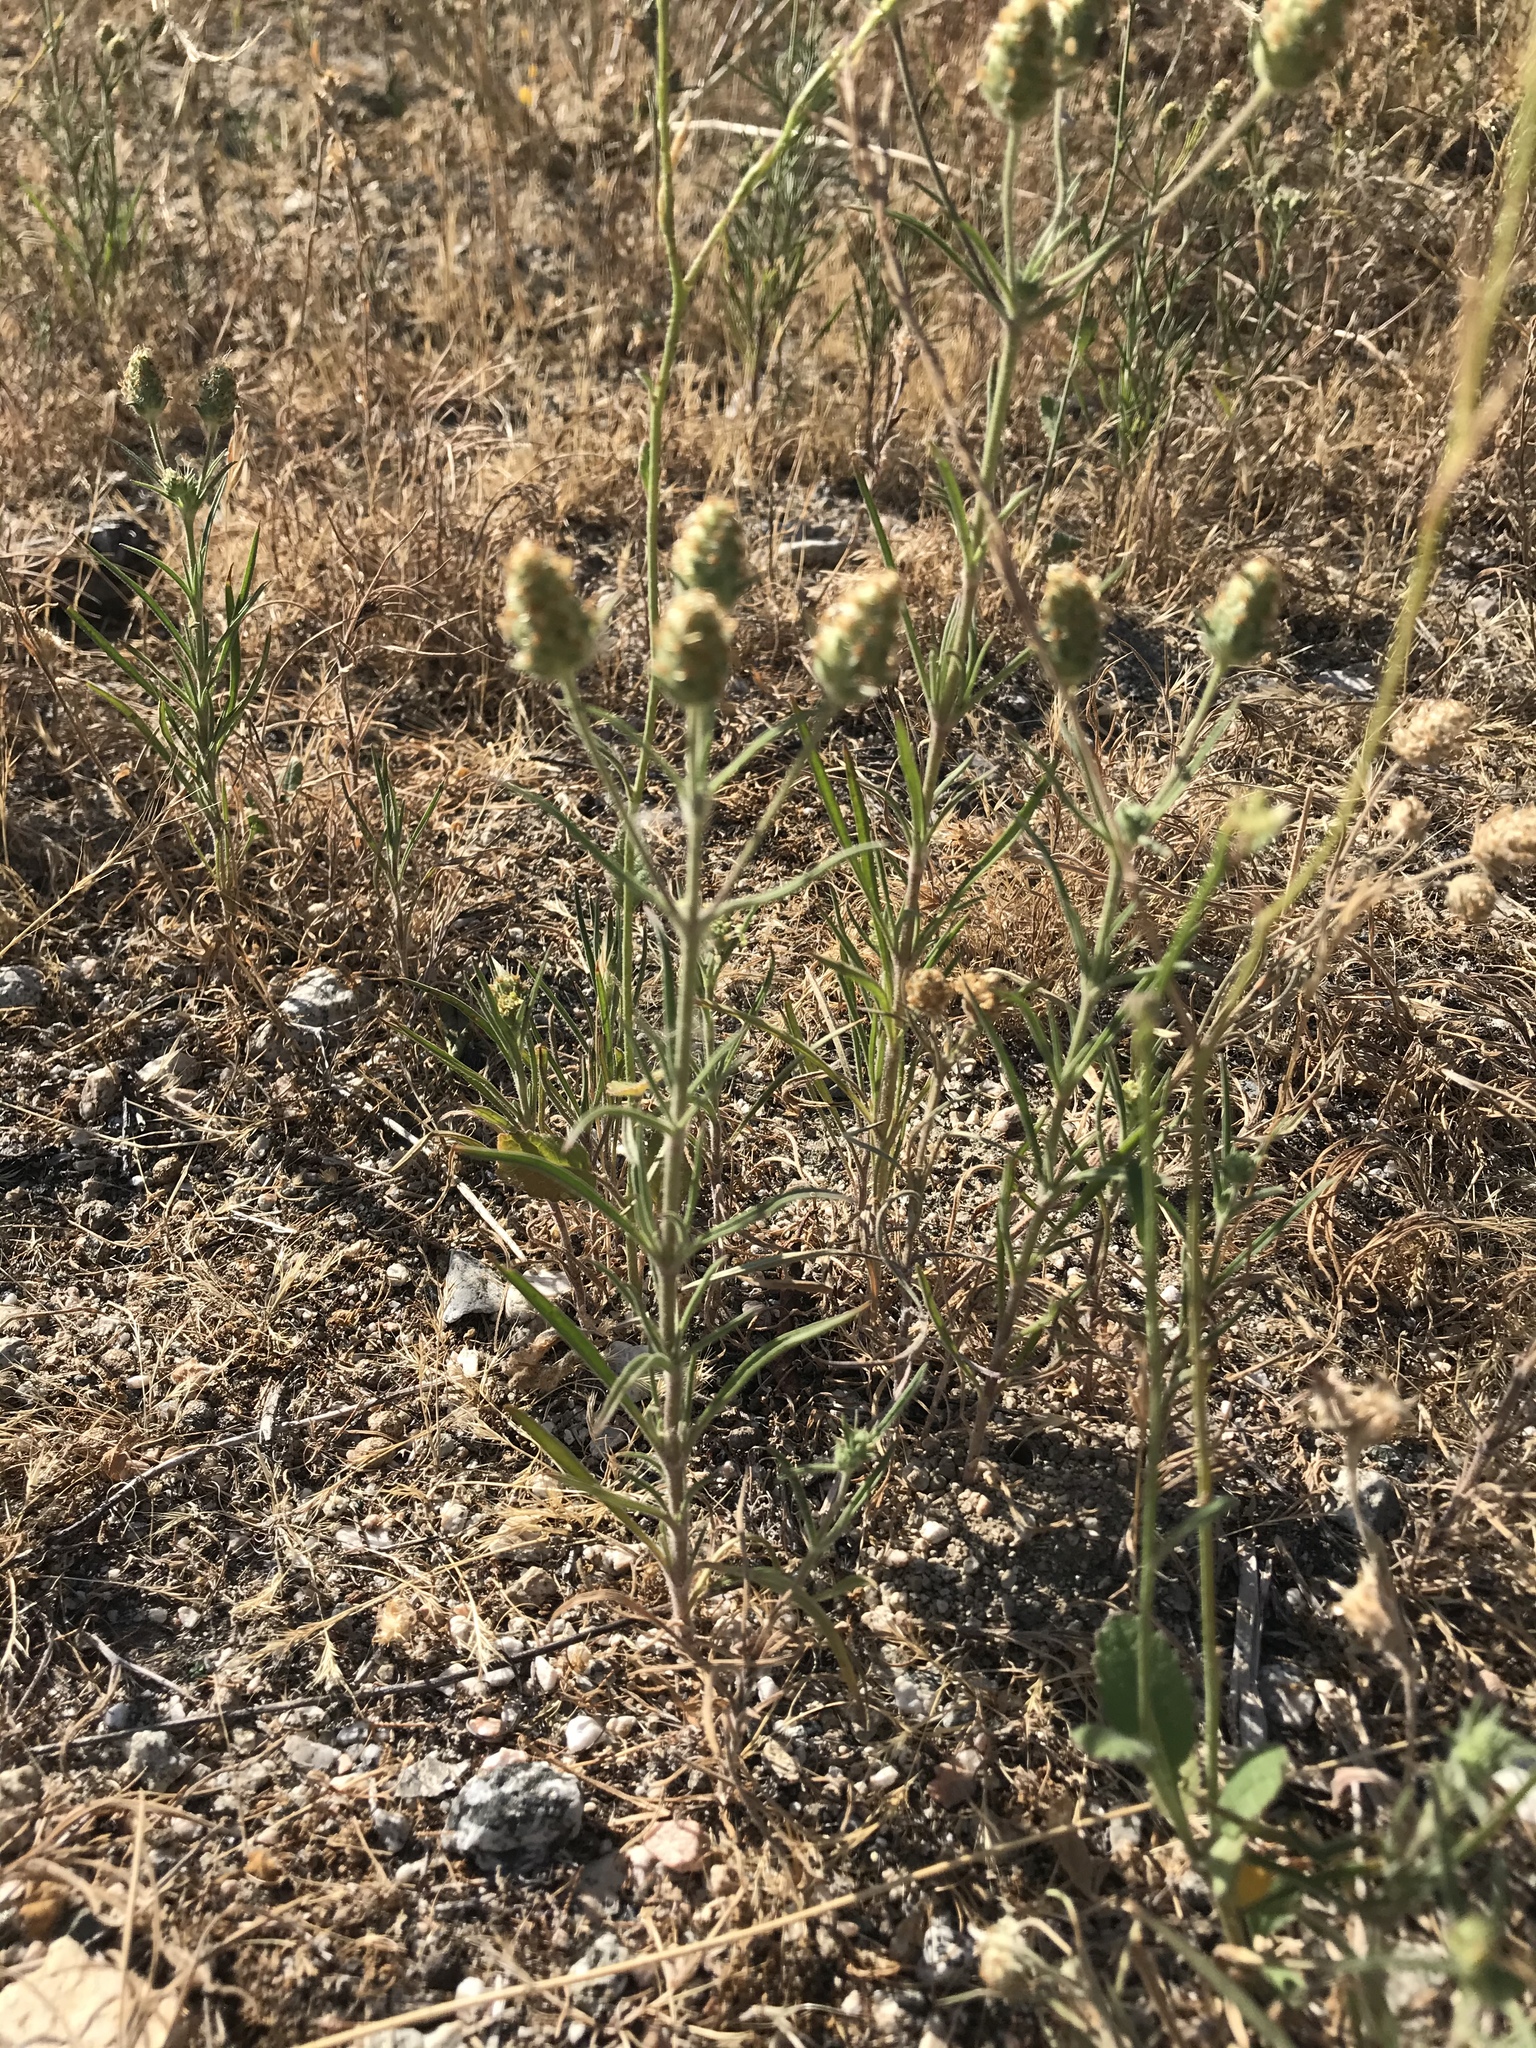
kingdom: Plantae
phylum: Tracheophyta
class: Magnoliopsida
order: Lamiales
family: Plantaginaceae
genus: Plantago
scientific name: Plantago arenaria
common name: Branched plantain
